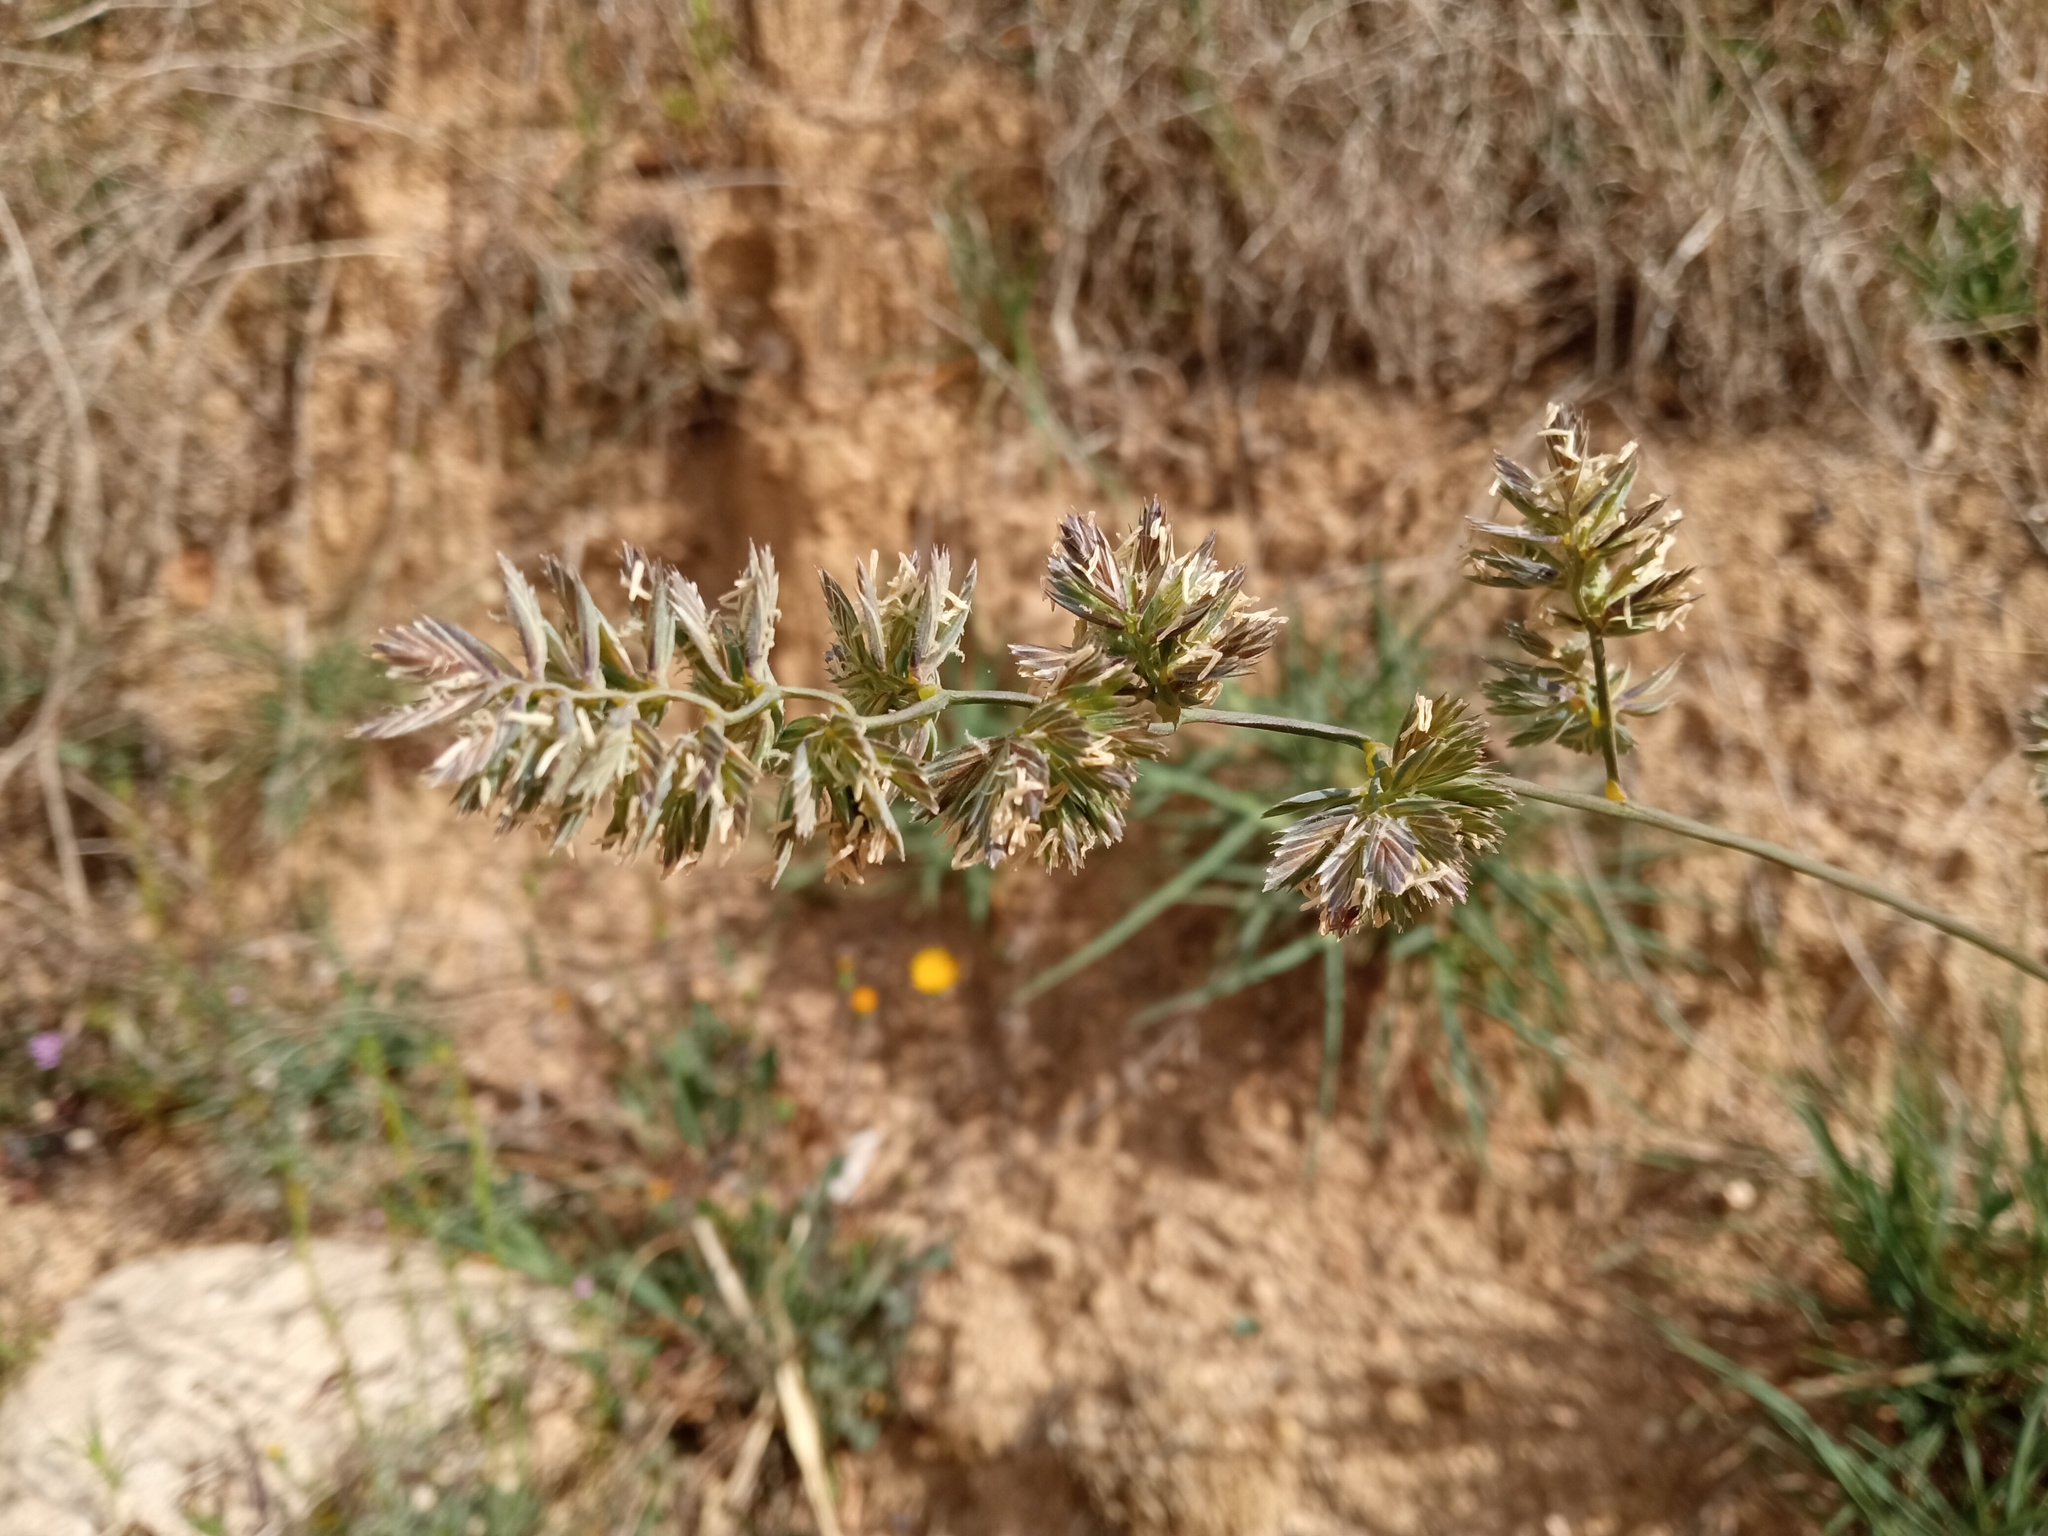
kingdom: Plantae
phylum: Tracheophyta
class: Liliopsida
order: Poales
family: Poaceae
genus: Dactylis
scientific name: Dactylis glomerata
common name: Orchardgrass
